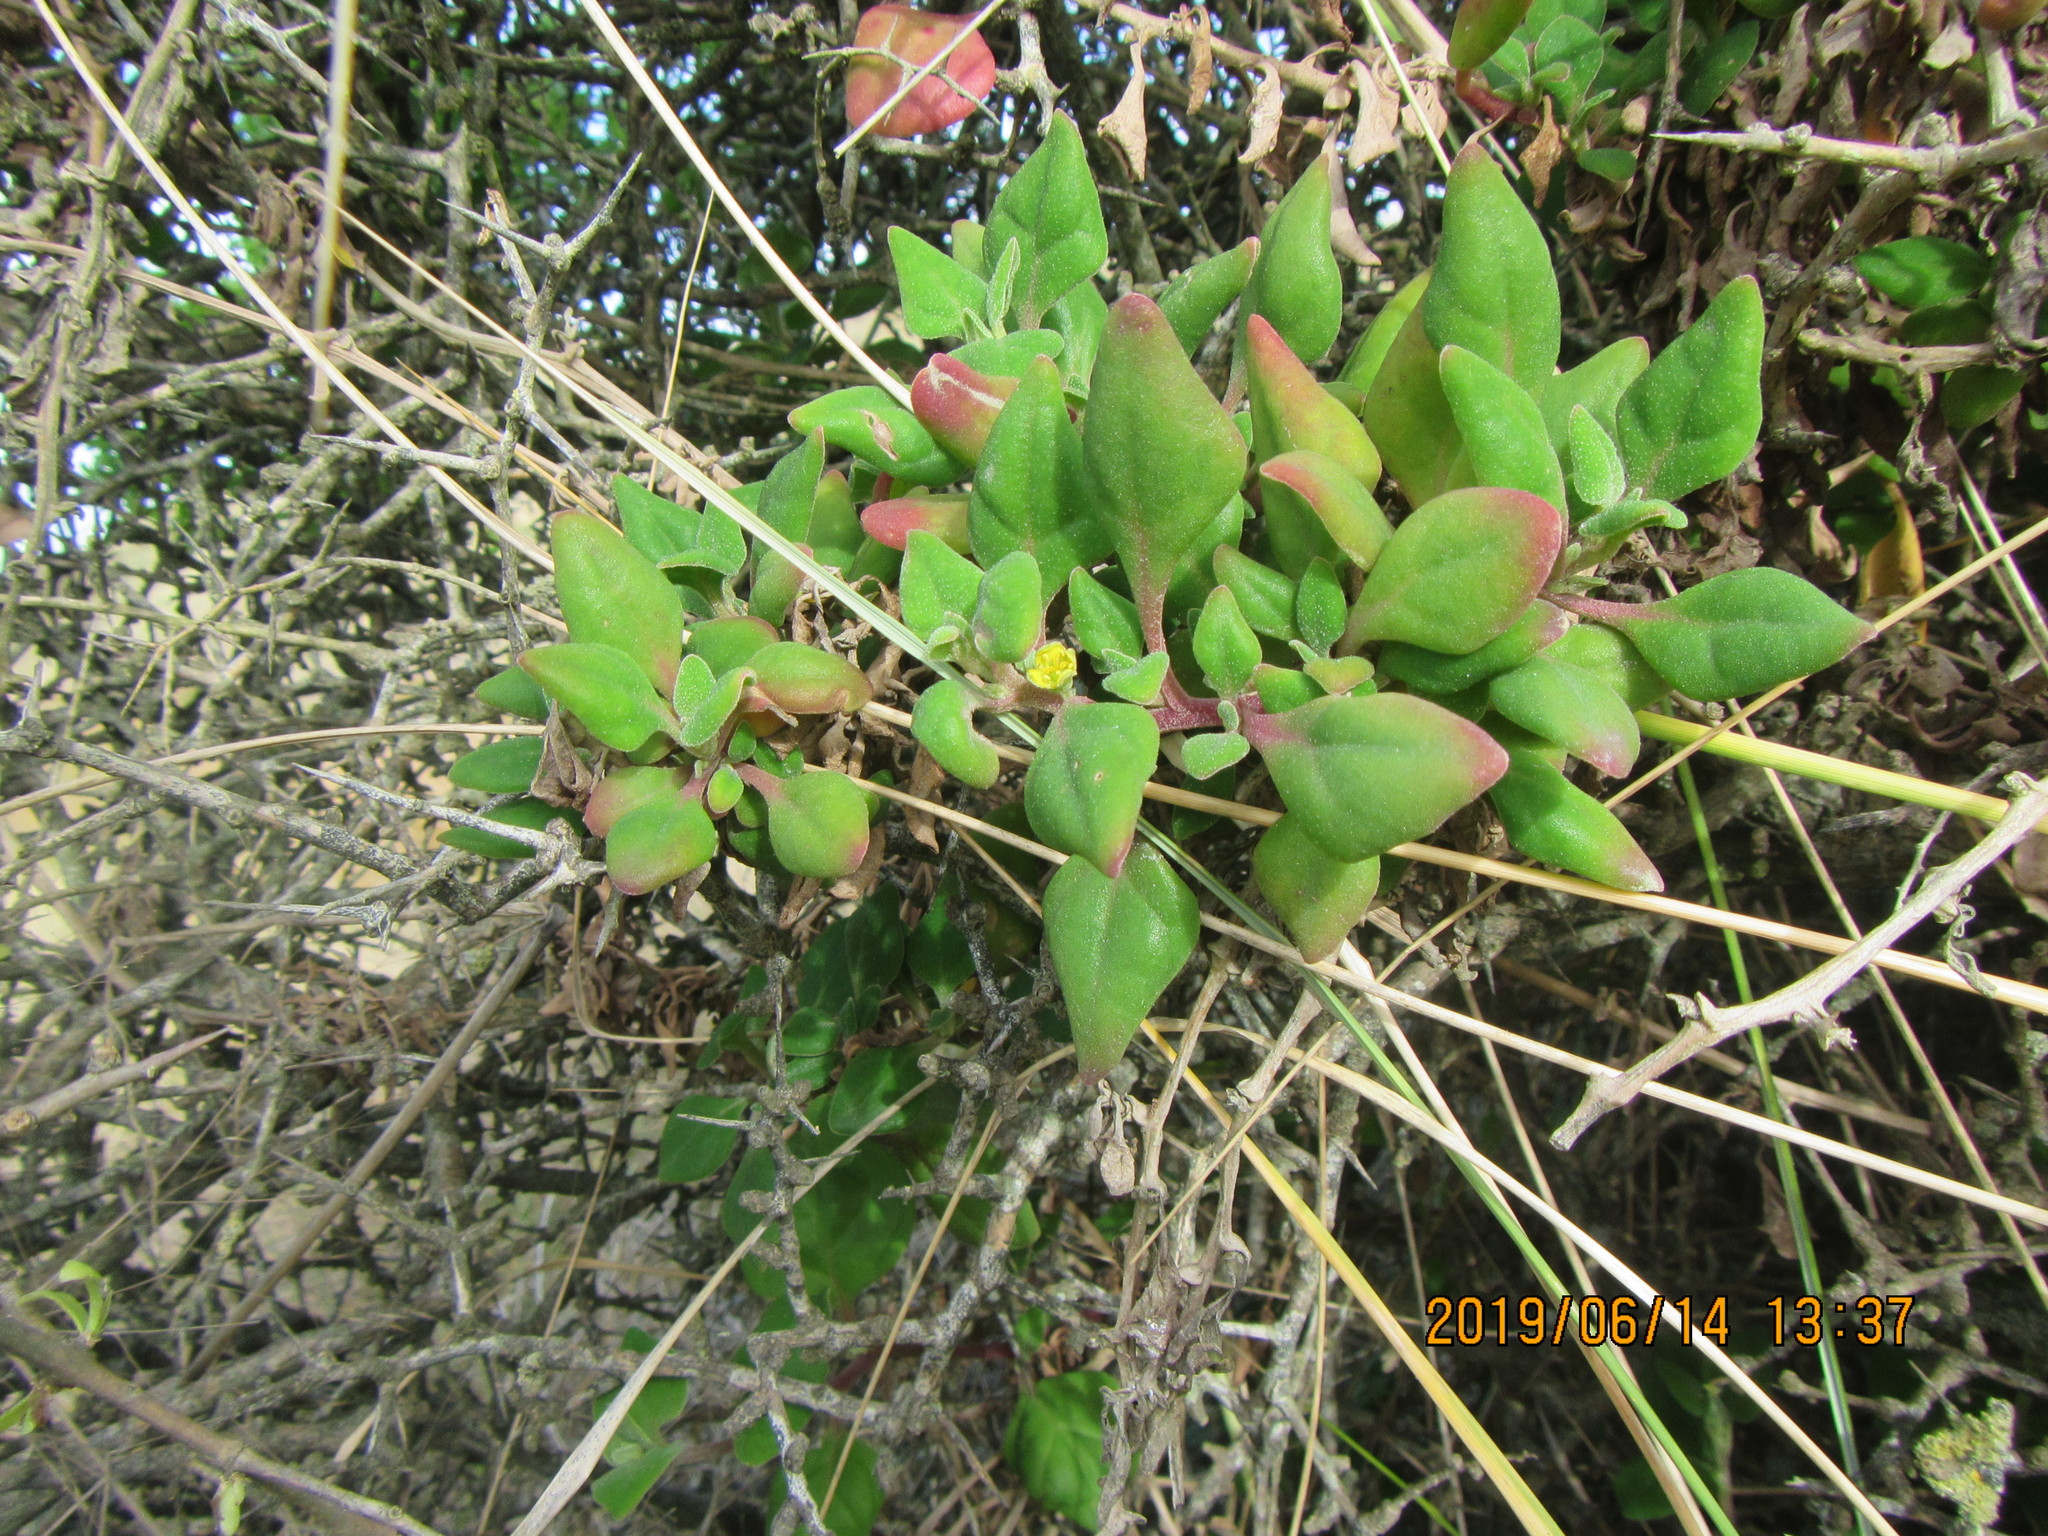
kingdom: Plantae
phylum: Tracheophyta
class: Magnoliopsida
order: Caryophyllales
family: Aizoaceae
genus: Tetragonia
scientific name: Tetragonia implexicoma
